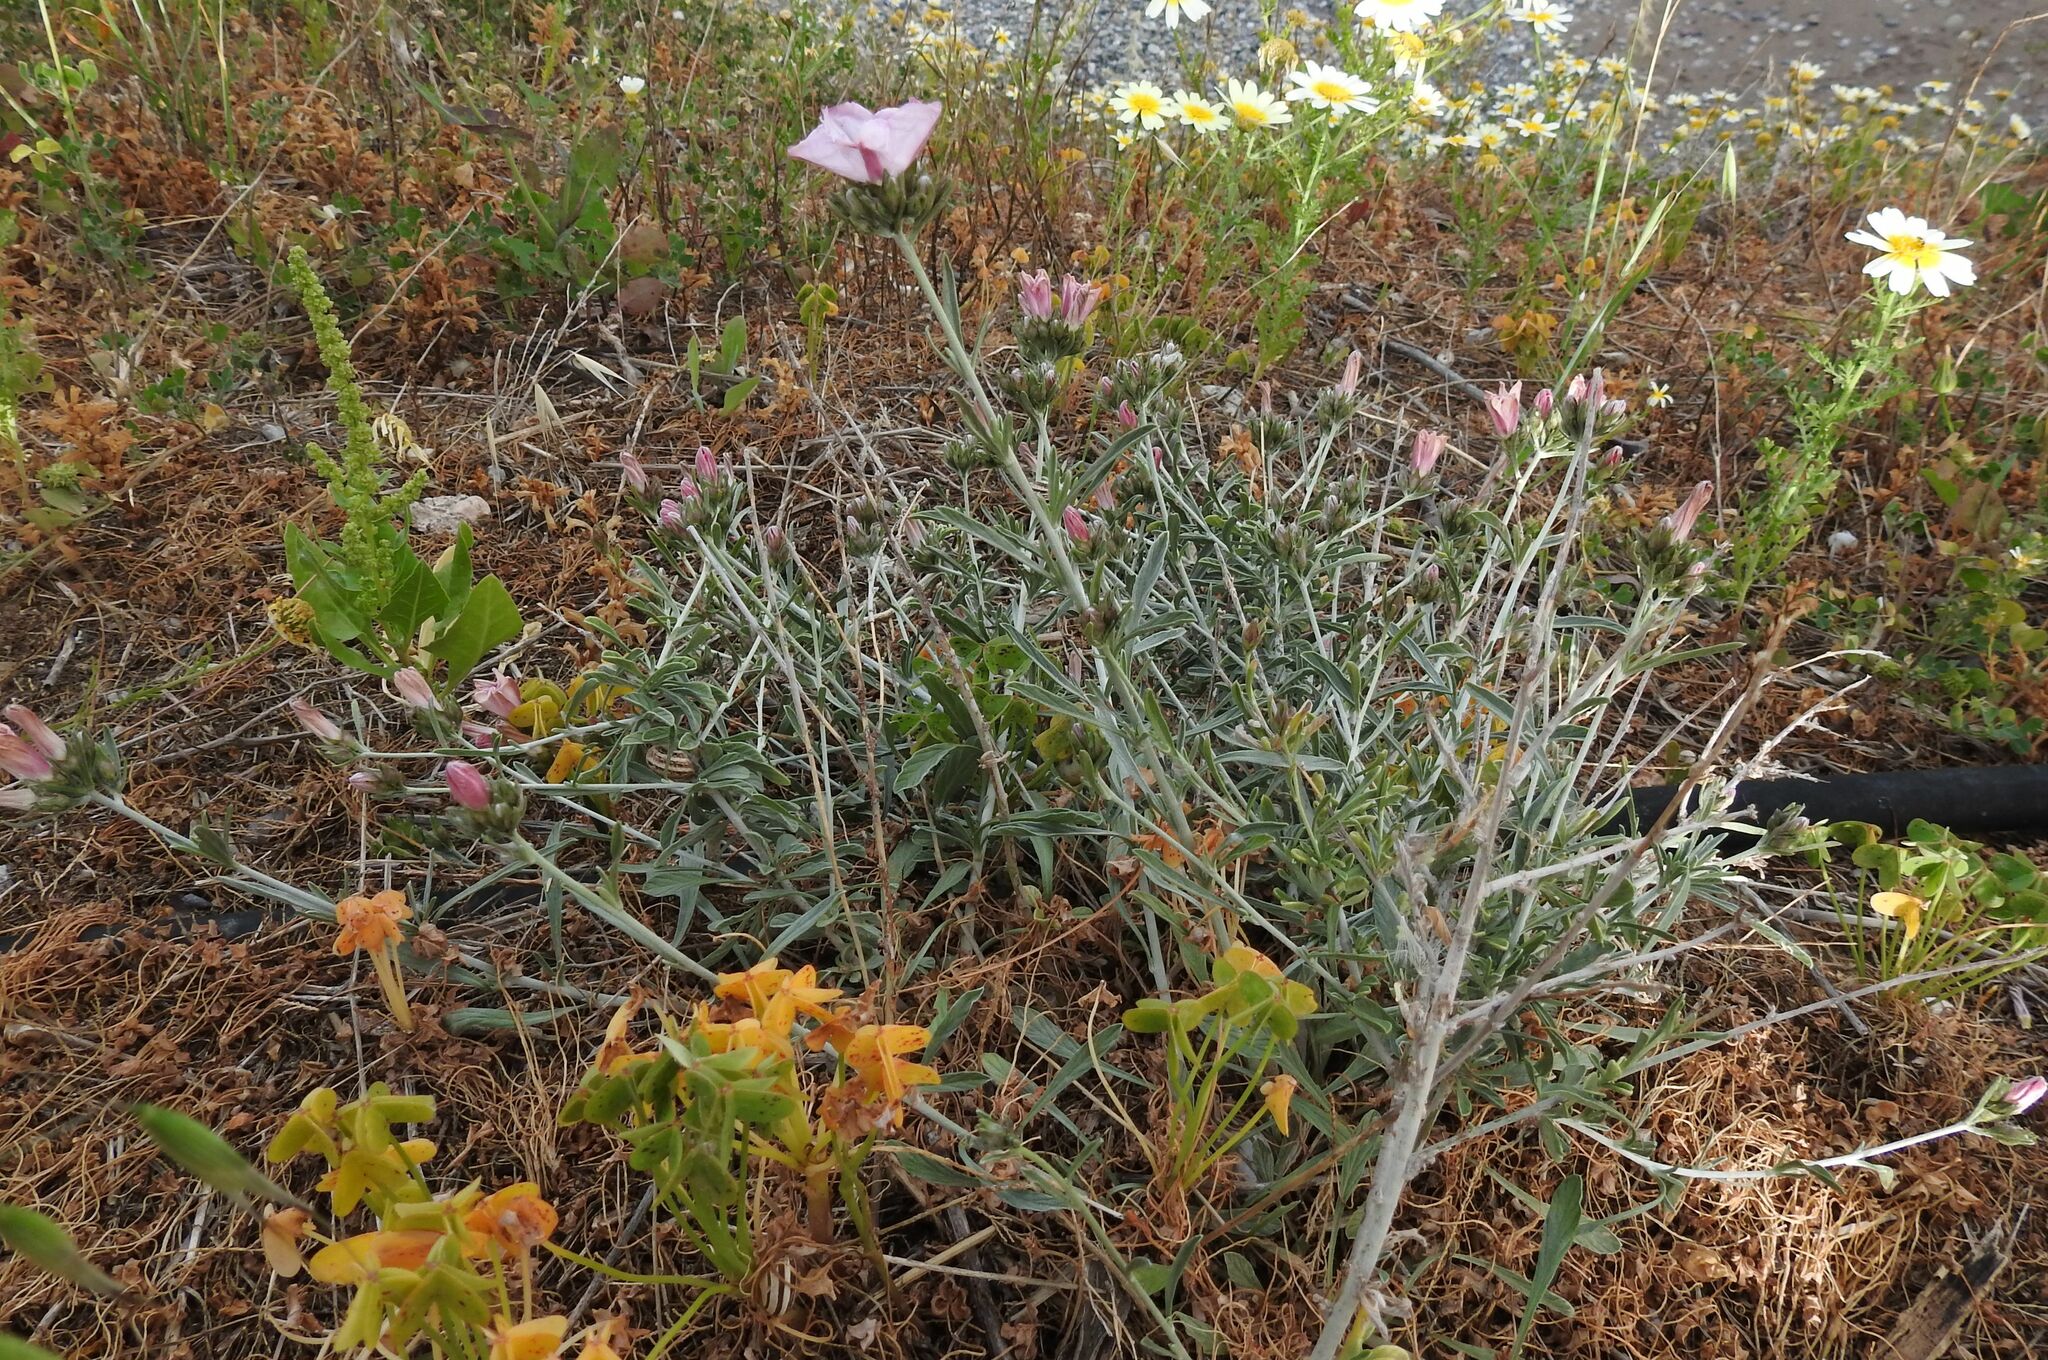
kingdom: Plantae
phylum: Tracheophyta
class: Magnoliopsida
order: Solanales
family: Convolvulaceae
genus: Convolvulus
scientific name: Convolvulus oleifolius
